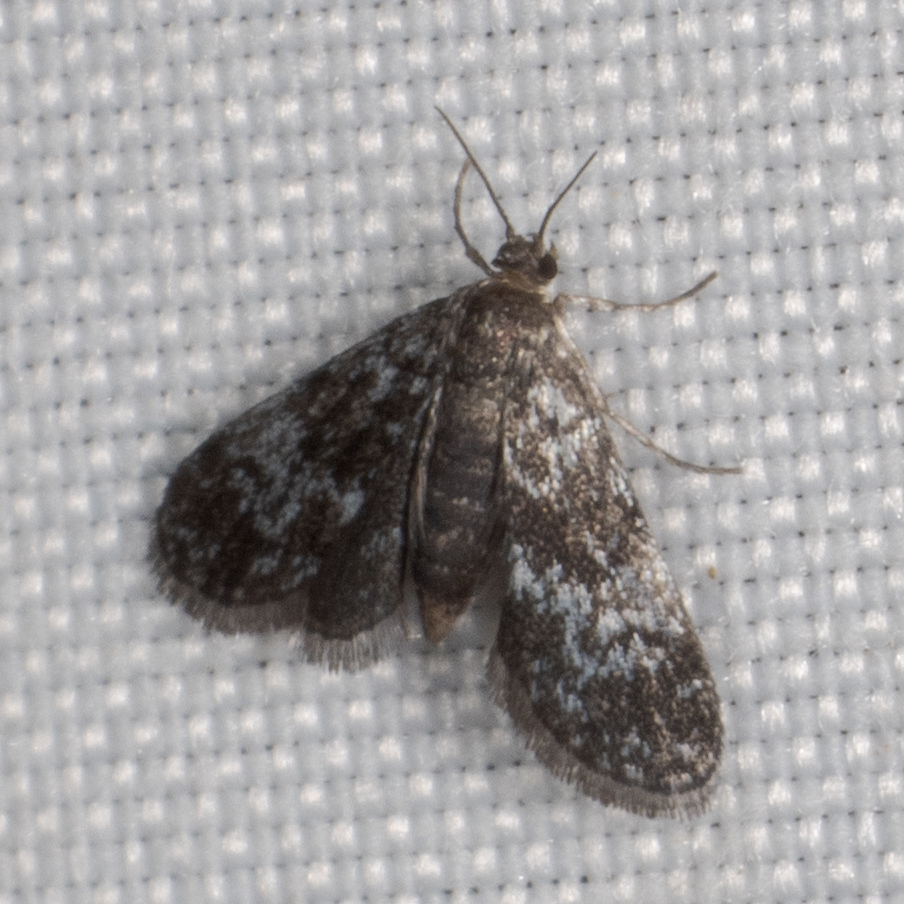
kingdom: Animalia
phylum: Arthropoda
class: Insecta
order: Lepidoptera
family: Crambidae
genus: Elophila
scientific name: Elophila tinealis
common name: Black duckweed moth
